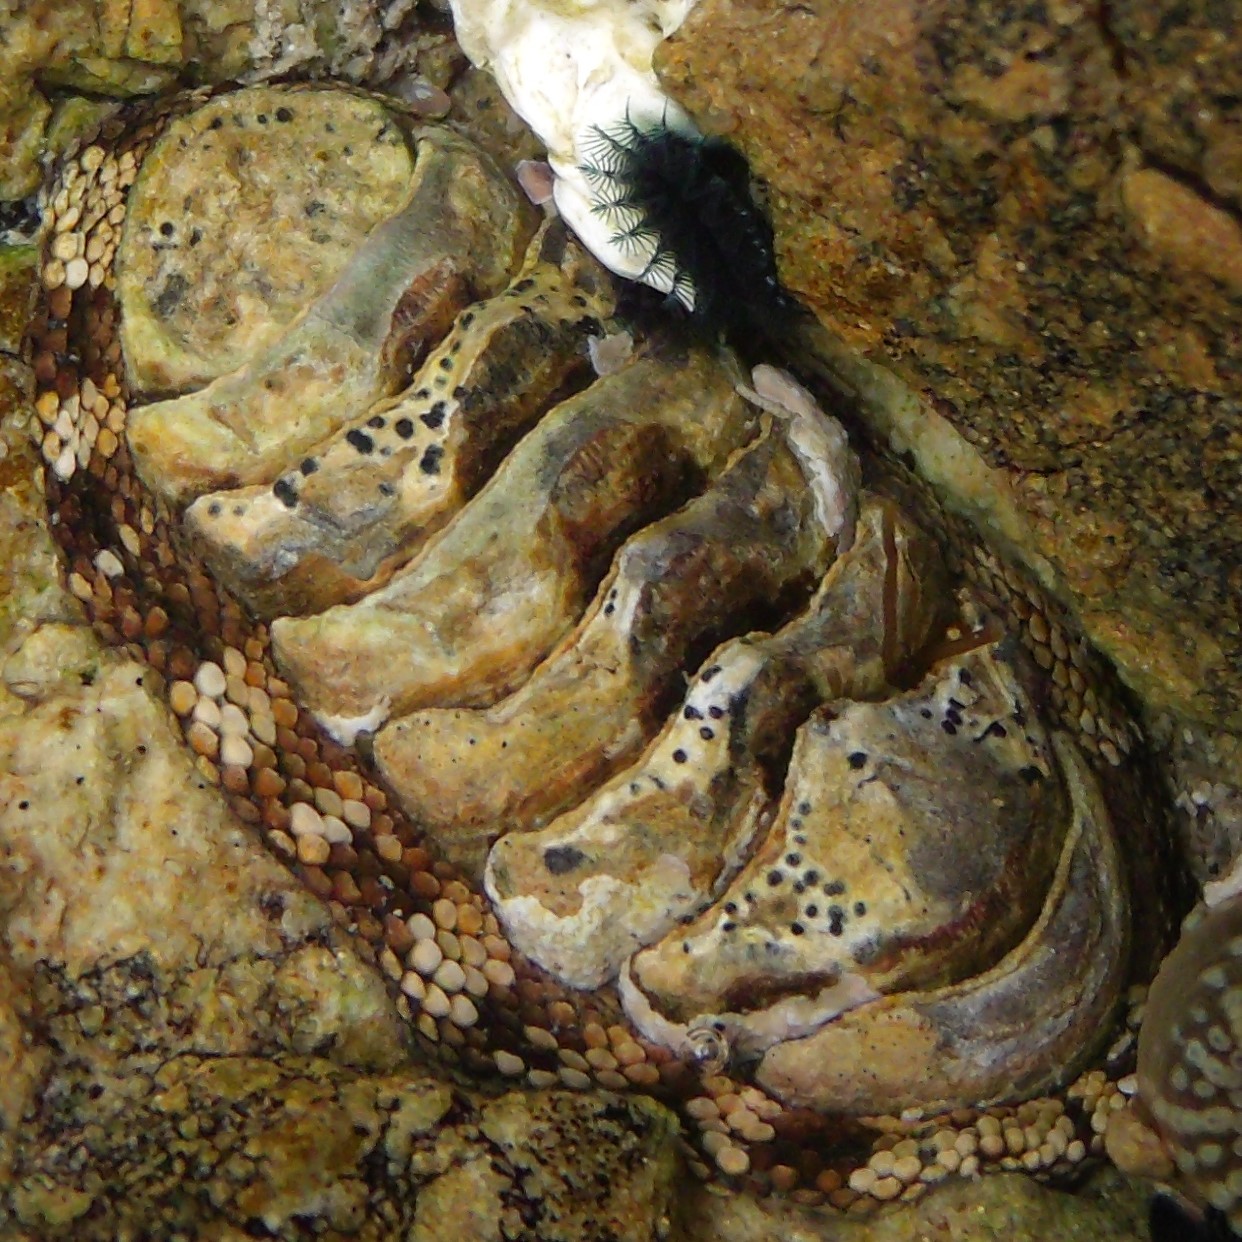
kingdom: Animalia
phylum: Mollusca
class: Polyplacophora
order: Chitonida
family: Chitonidae
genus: Sypharochiton
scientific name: Sypharochiton pelliserpentis
